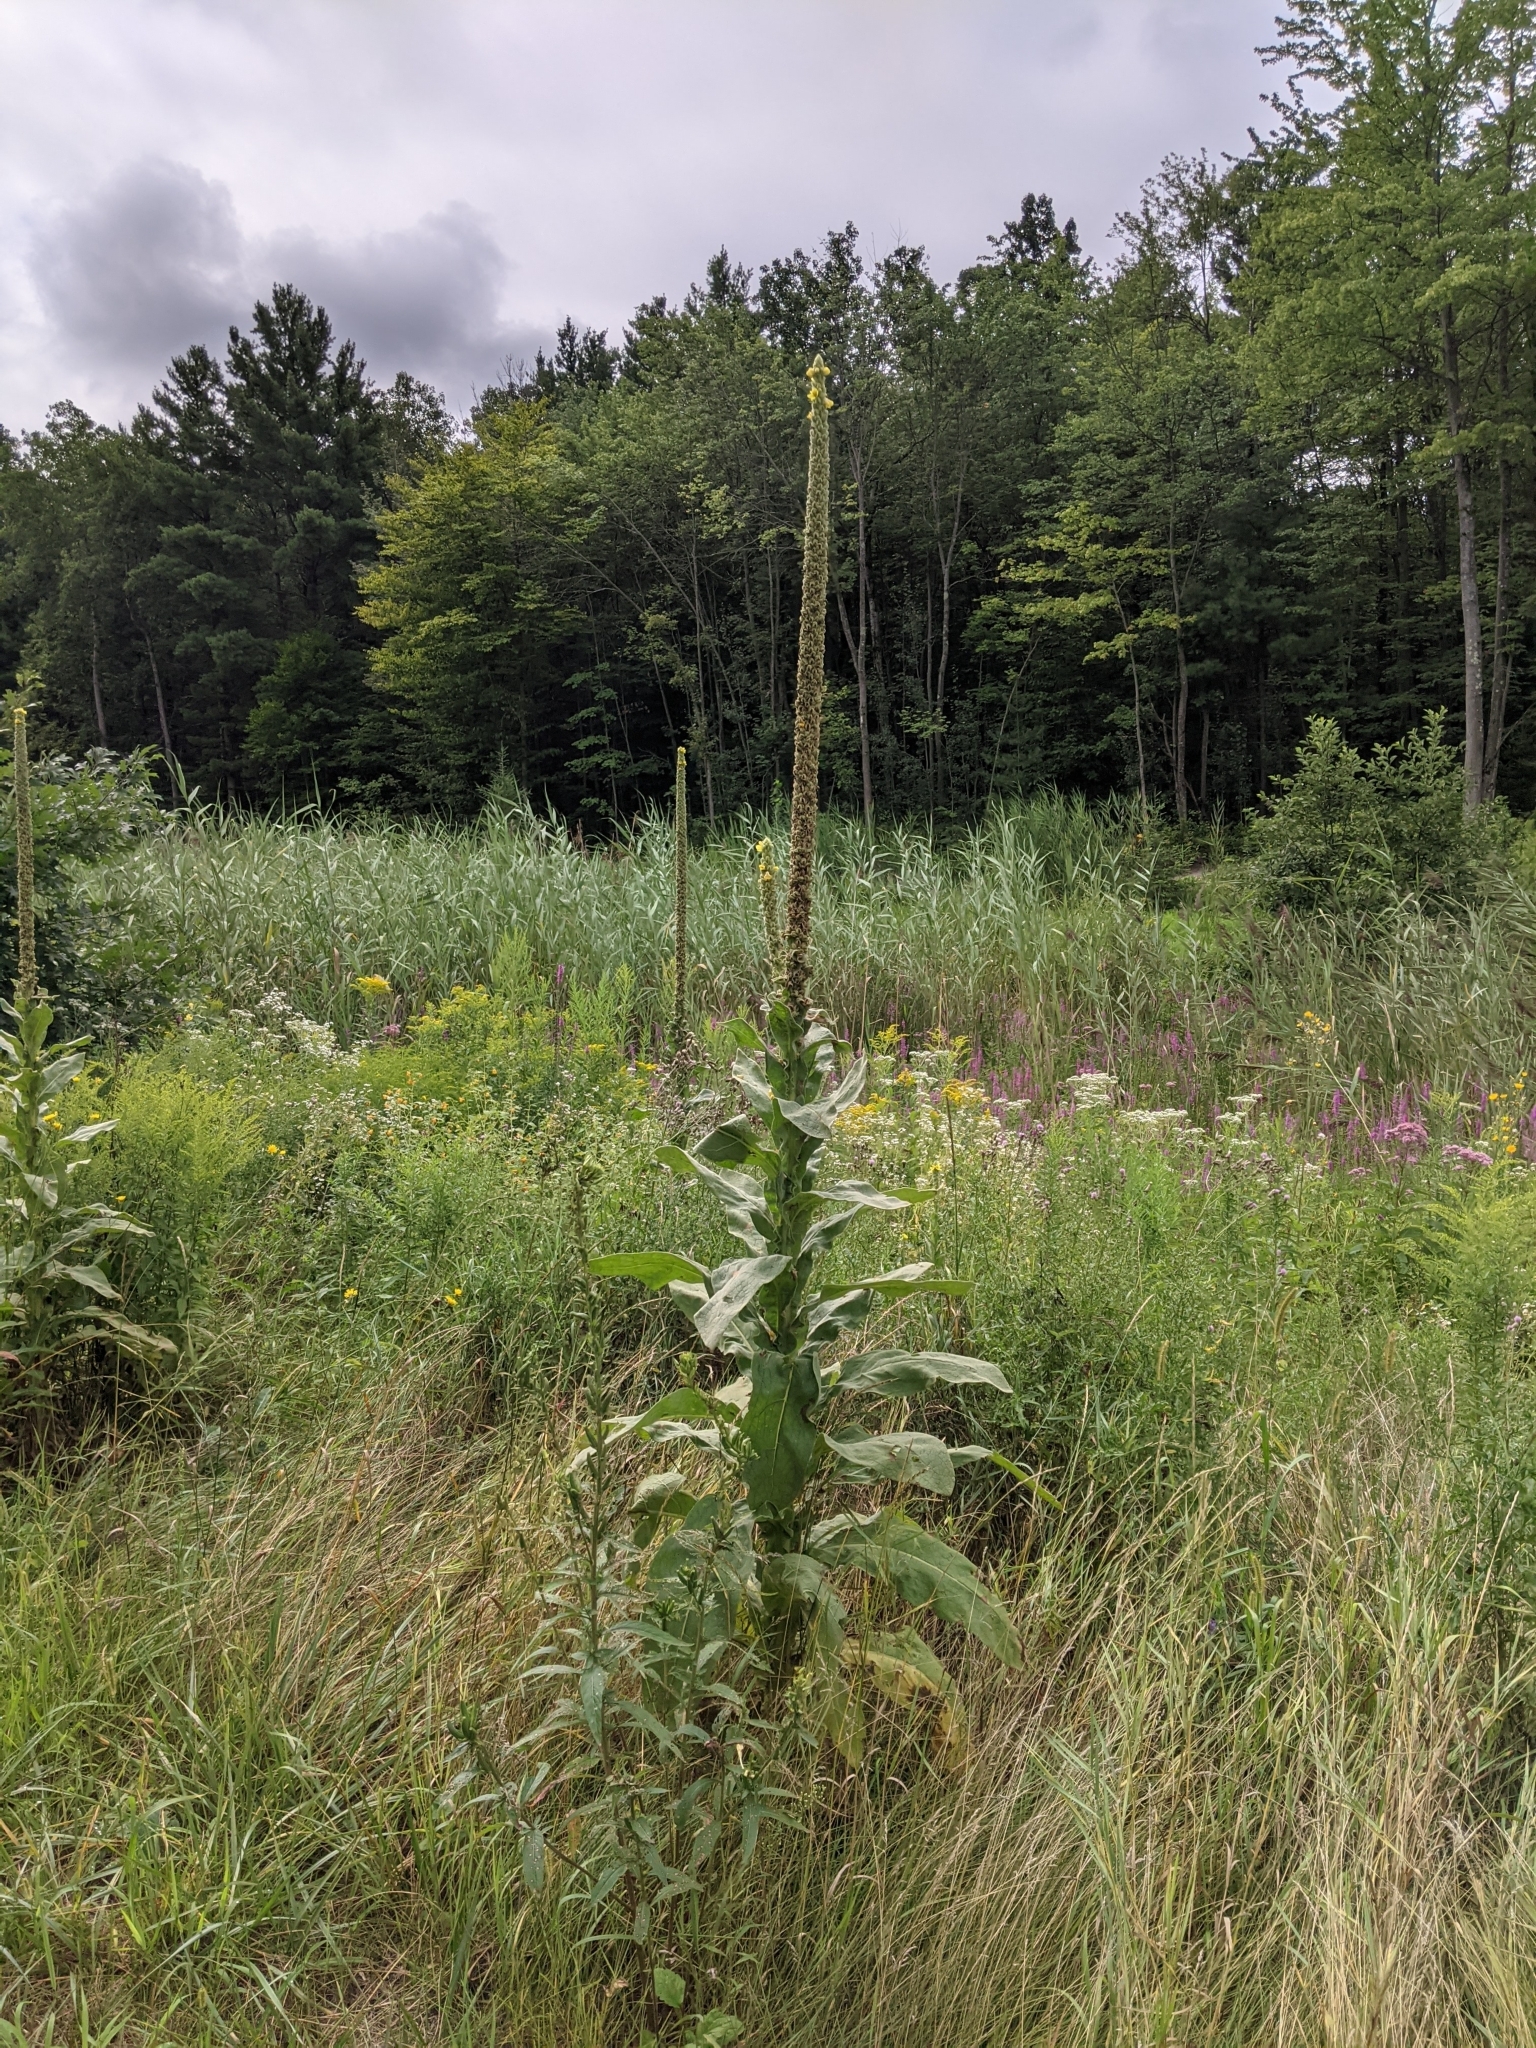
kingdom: Plantae
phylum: Tracheophyta
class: Magnoliopsida
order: Lamiales
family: Scrophulariaceae
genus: Verbascum
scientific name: Verbascum thapsus
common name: Common mullein
